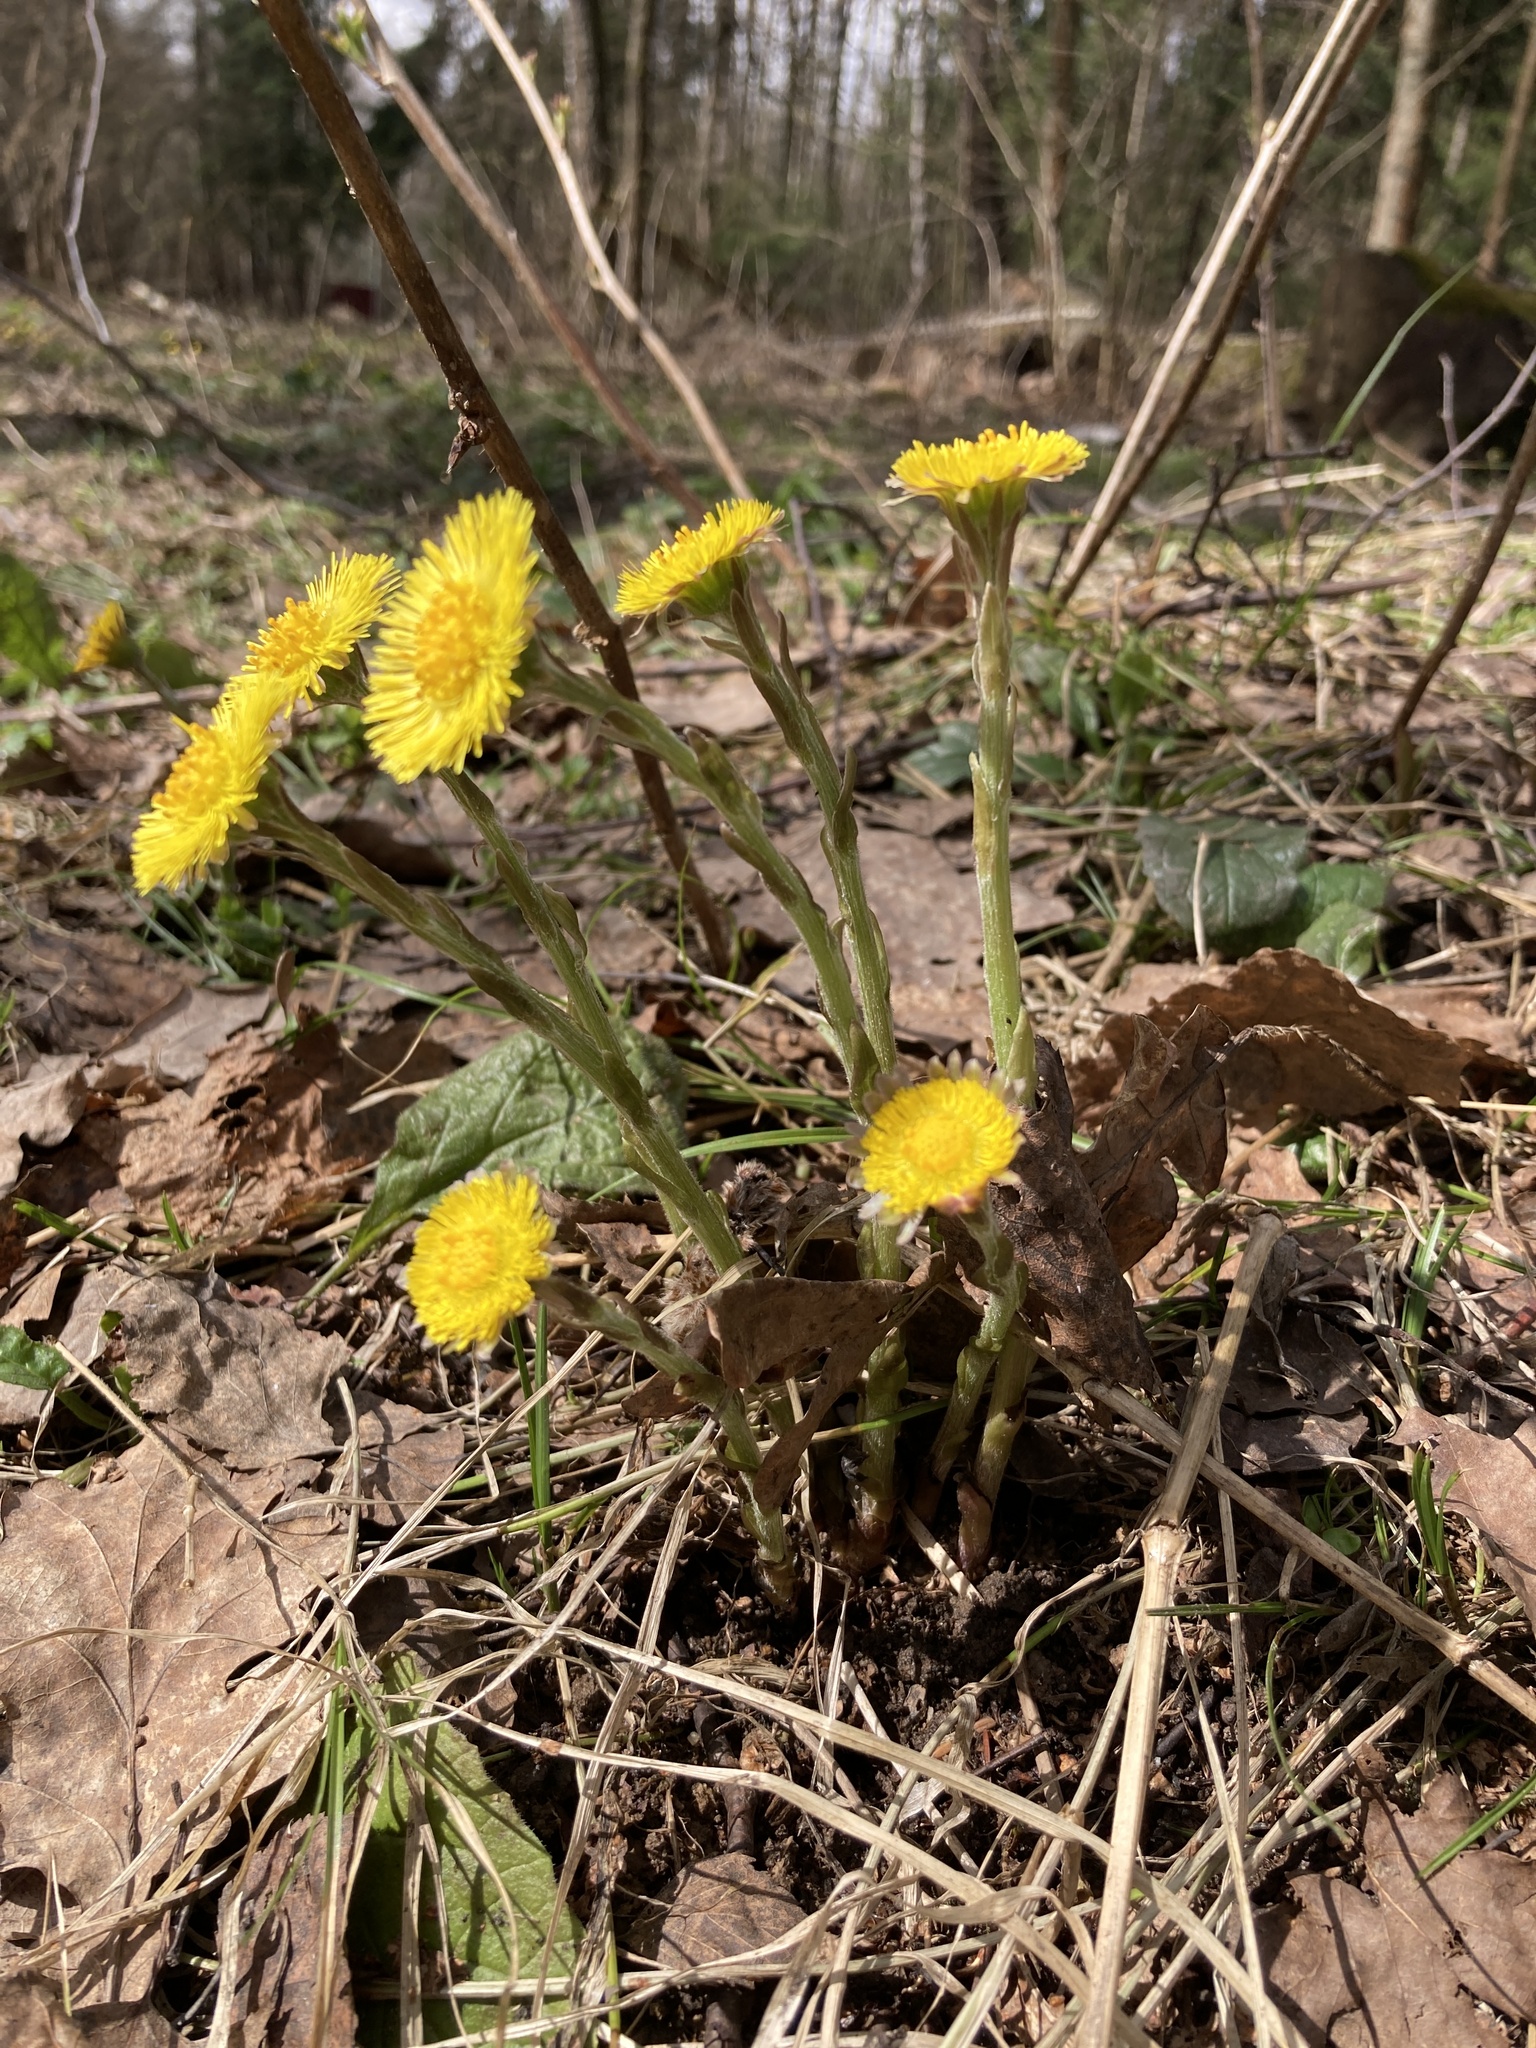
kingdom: Plantae
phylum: Tracheophyta
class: Magnoliopsida
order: Asterales
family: Asteraceae
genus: Tussilago
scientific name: Tussilago farfara
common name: Coltsfoot
